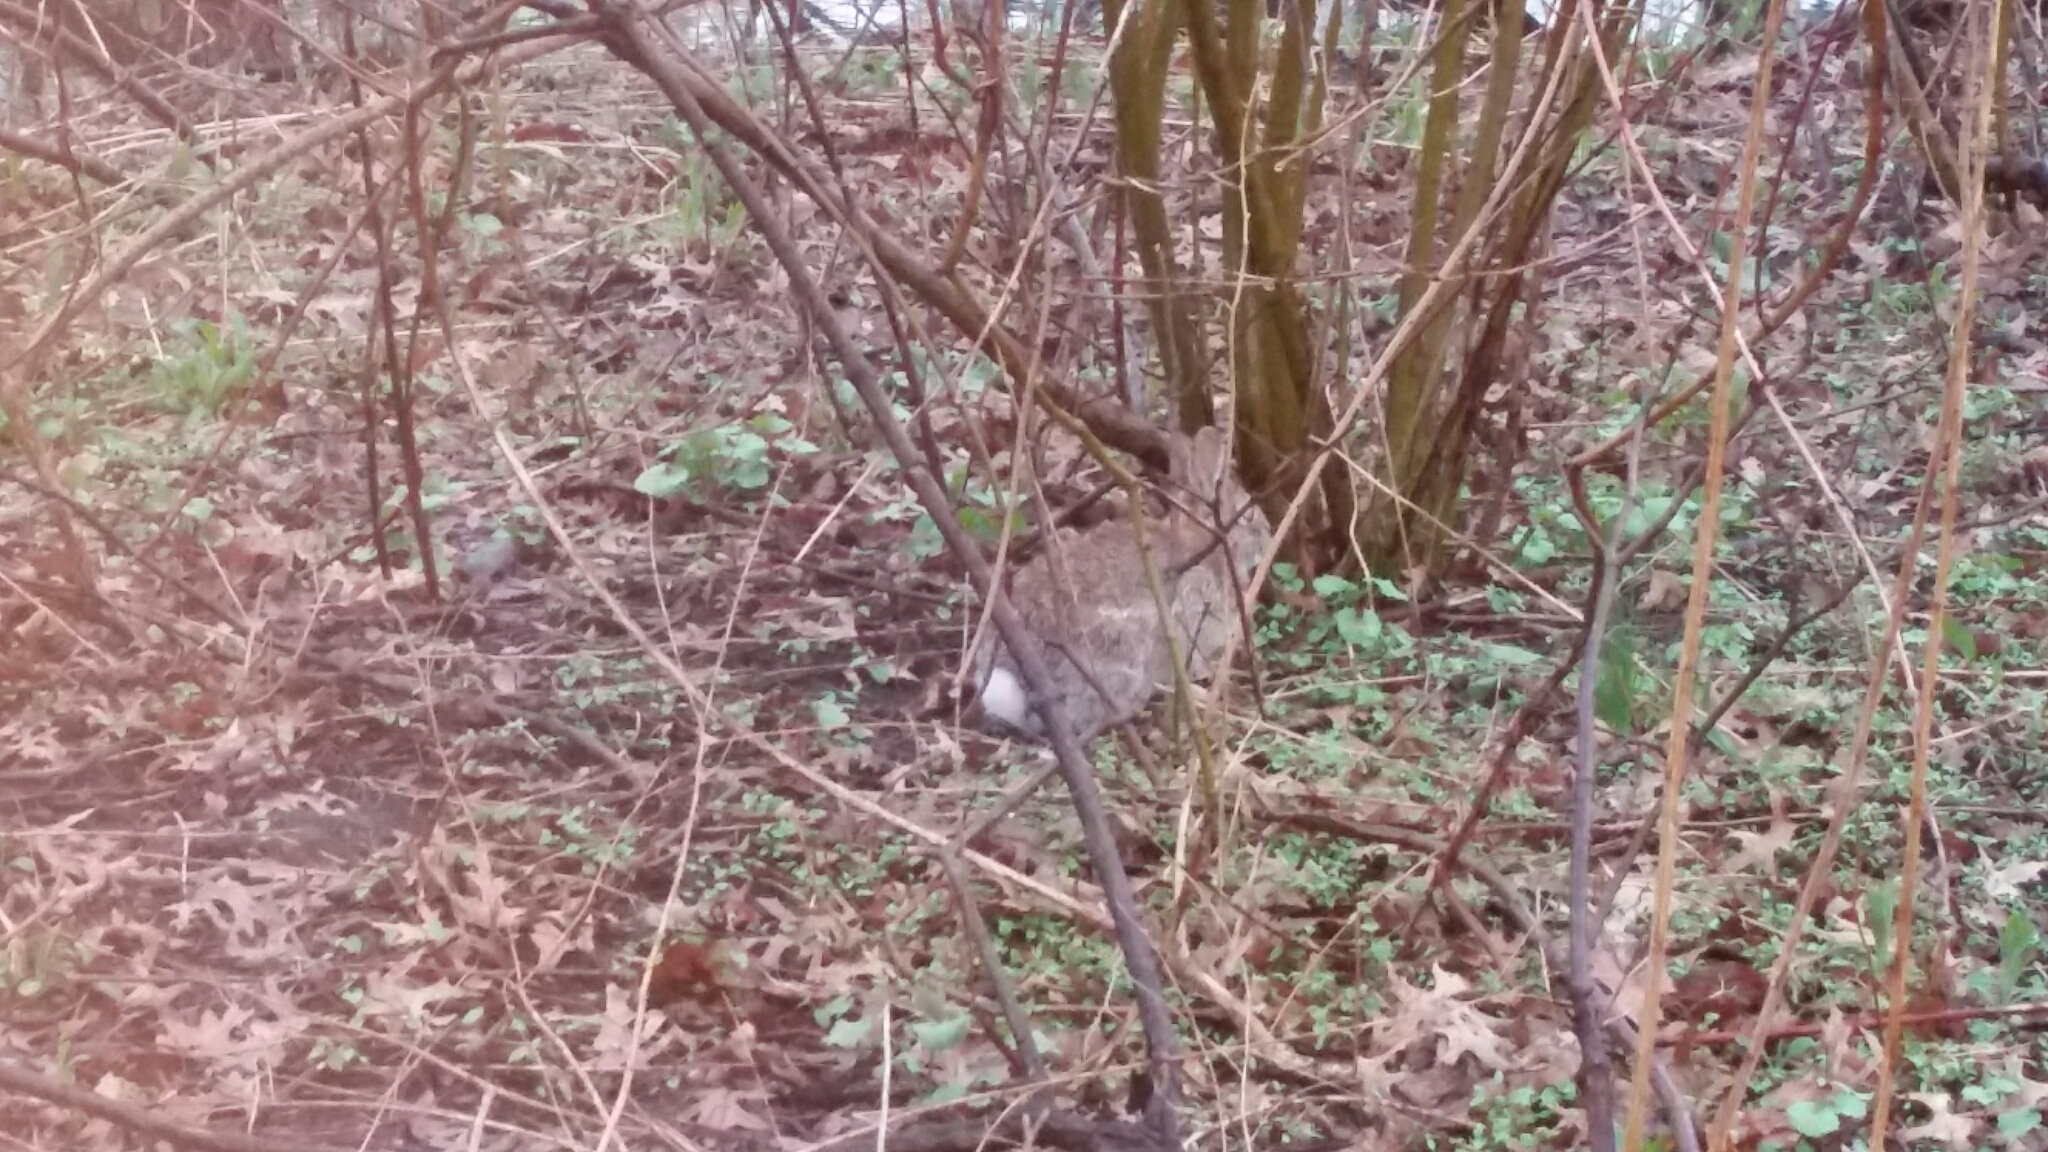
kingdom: Animalia
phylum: Chordata
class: Mammalia
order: Lagomorpha
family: Leporidae
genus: Sylvilagus
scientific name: Sylvilagus floridanus
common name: Eastern cottontail
